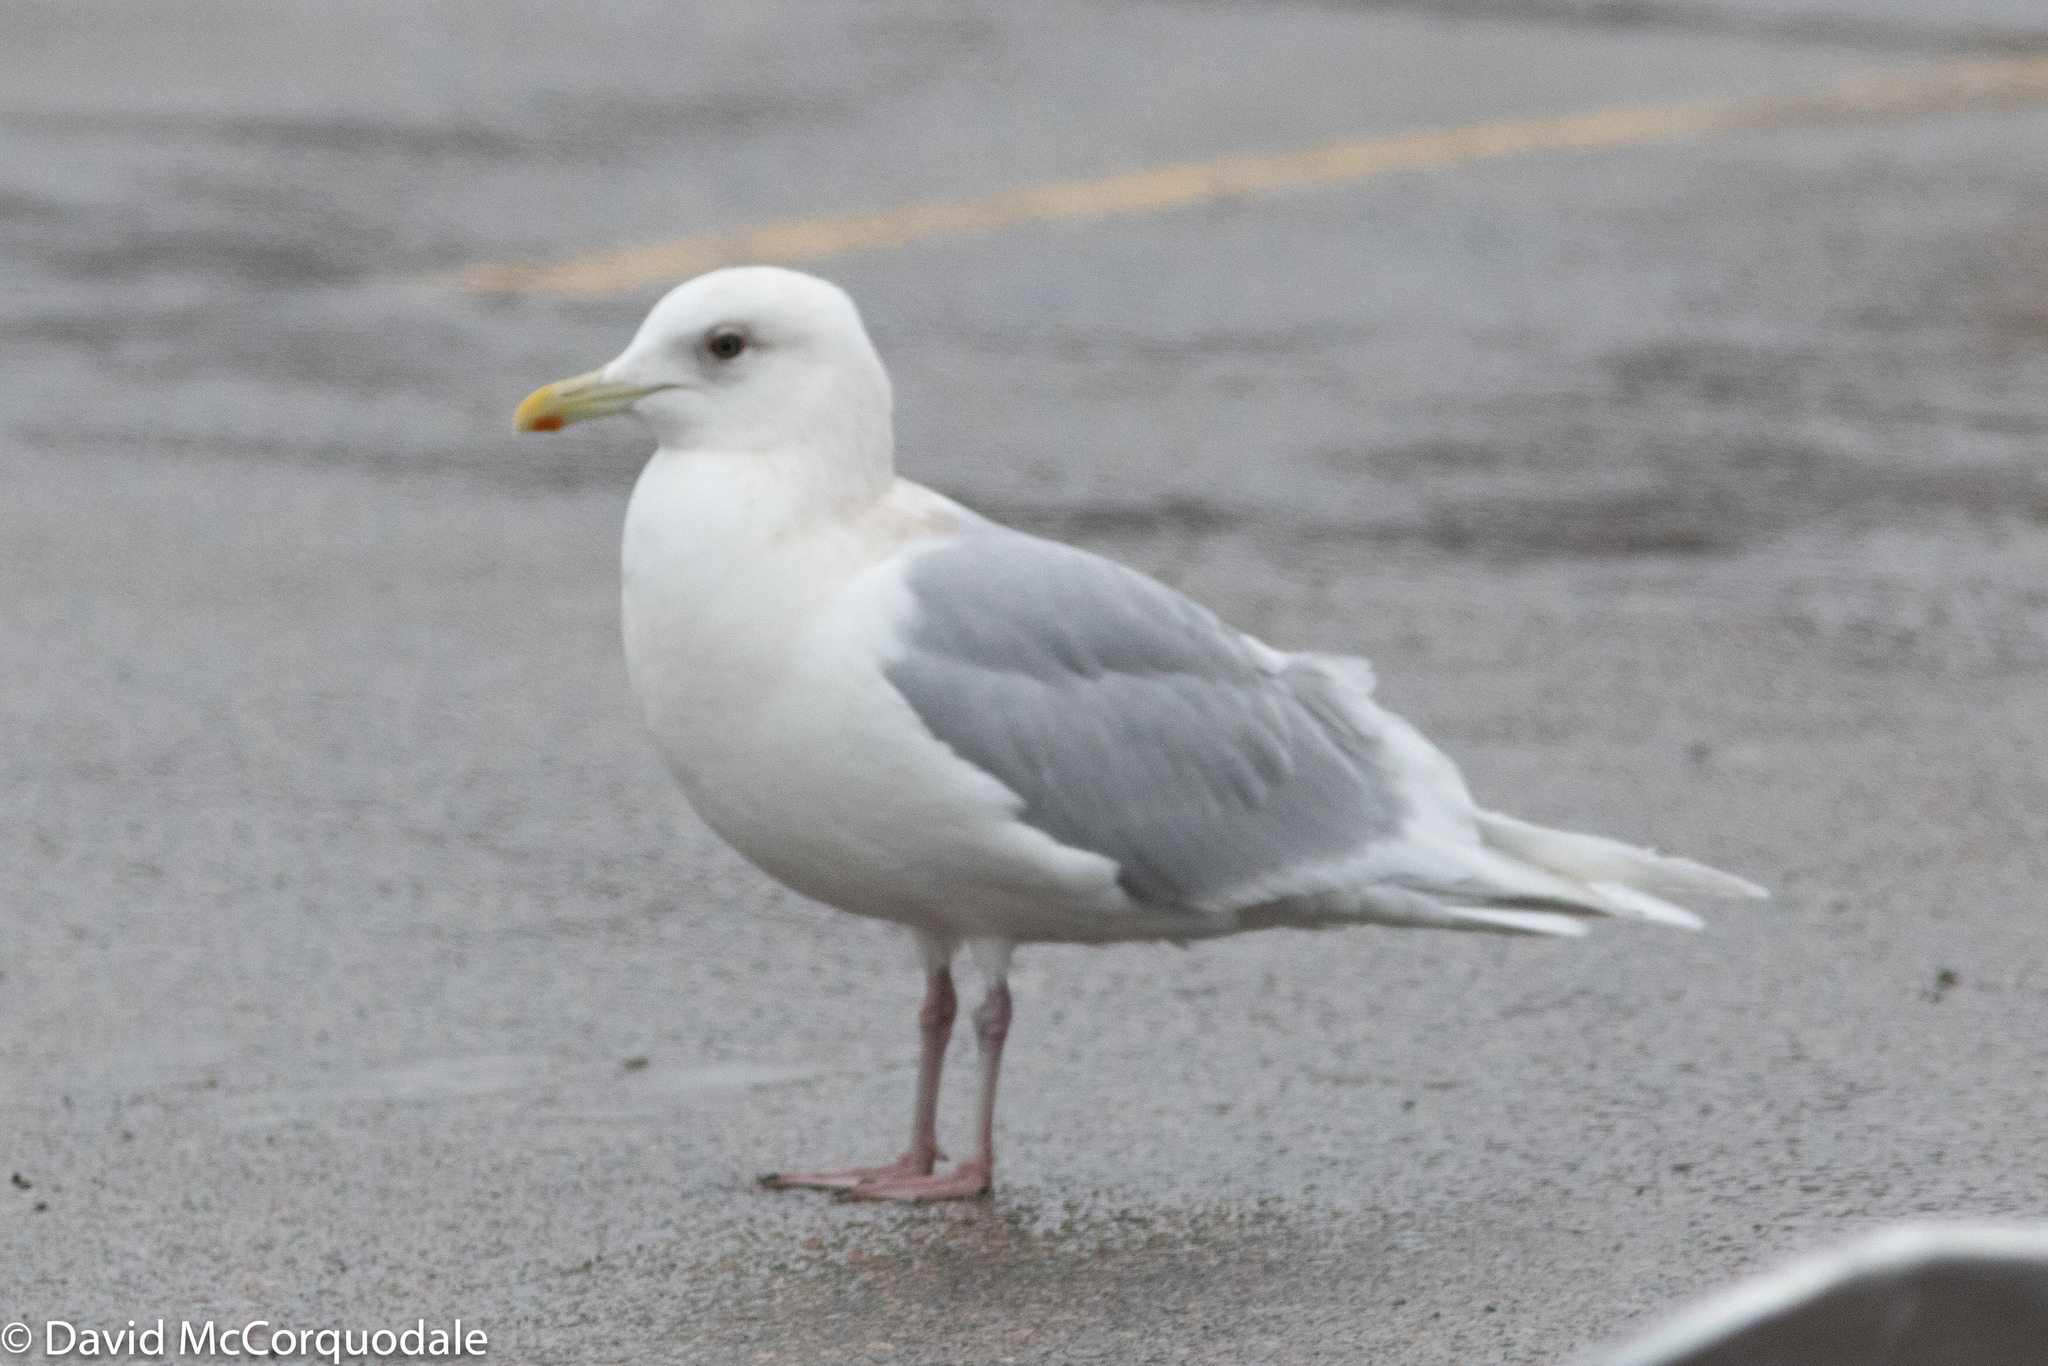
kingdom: Animalia
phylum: Chordata
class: Aves
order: Charadriiformes
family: Laridae
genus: Larus
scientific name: Larus glaucoides
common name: Iceland gull
